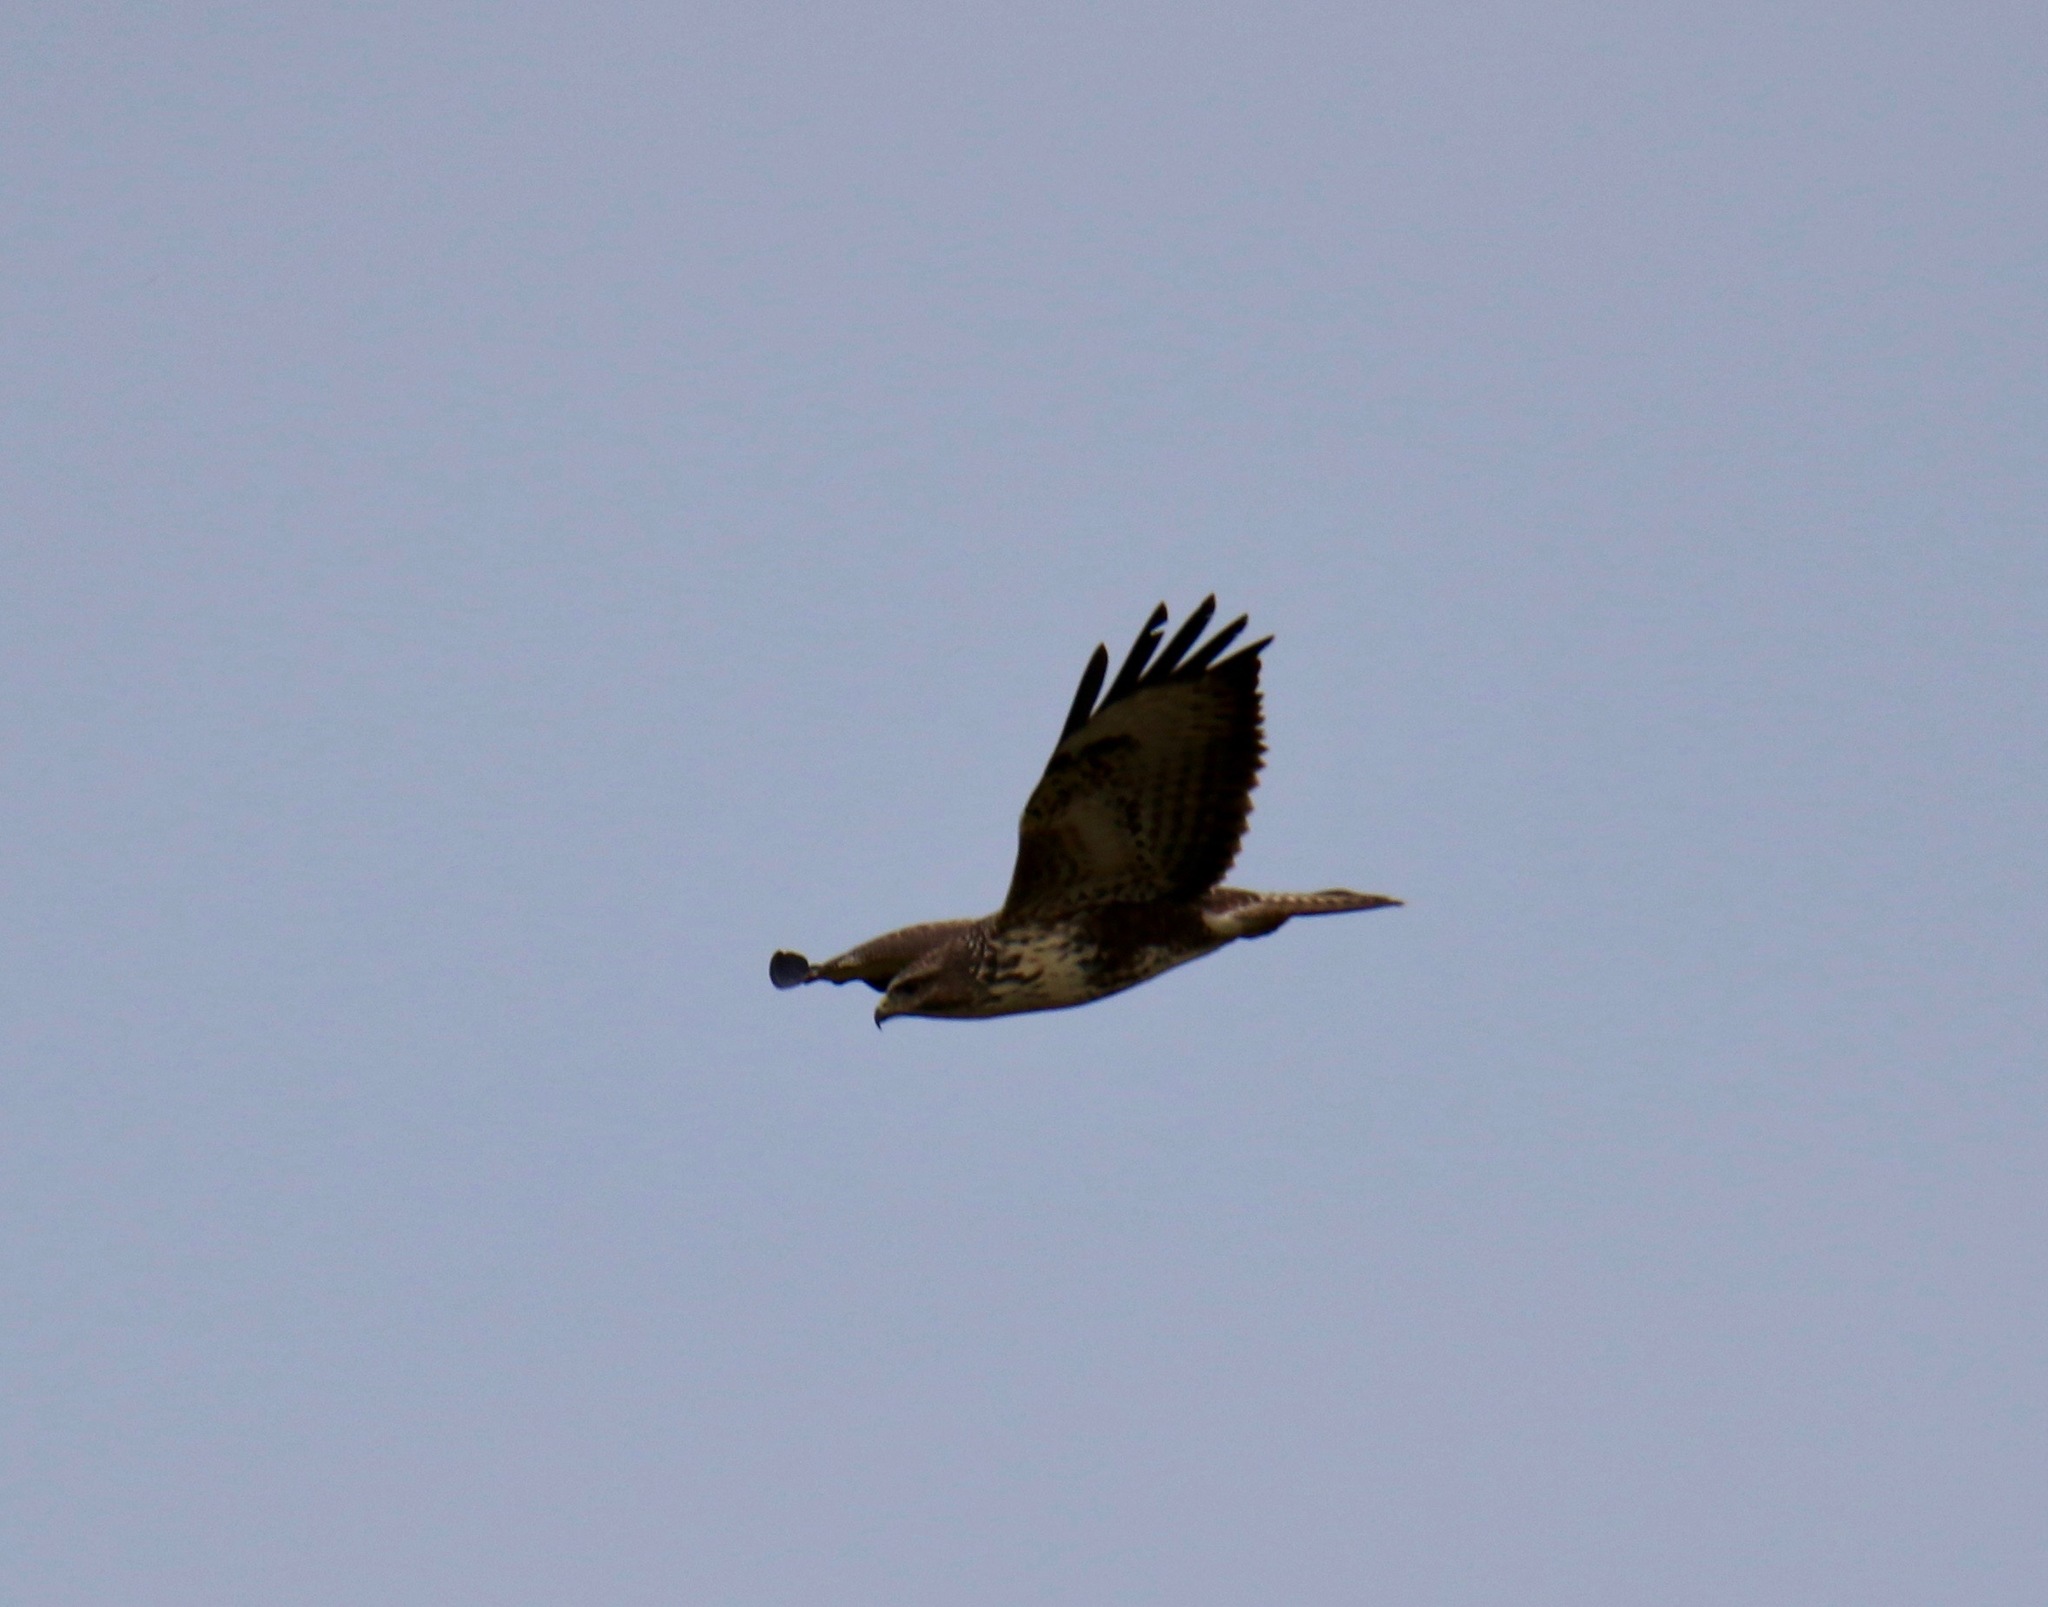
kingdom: Animalia
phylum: Chordata
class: Aves
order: Accipitriformes
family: Accipitridae
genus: Buteo
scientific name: Buteo buteo
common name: Common buzzard
